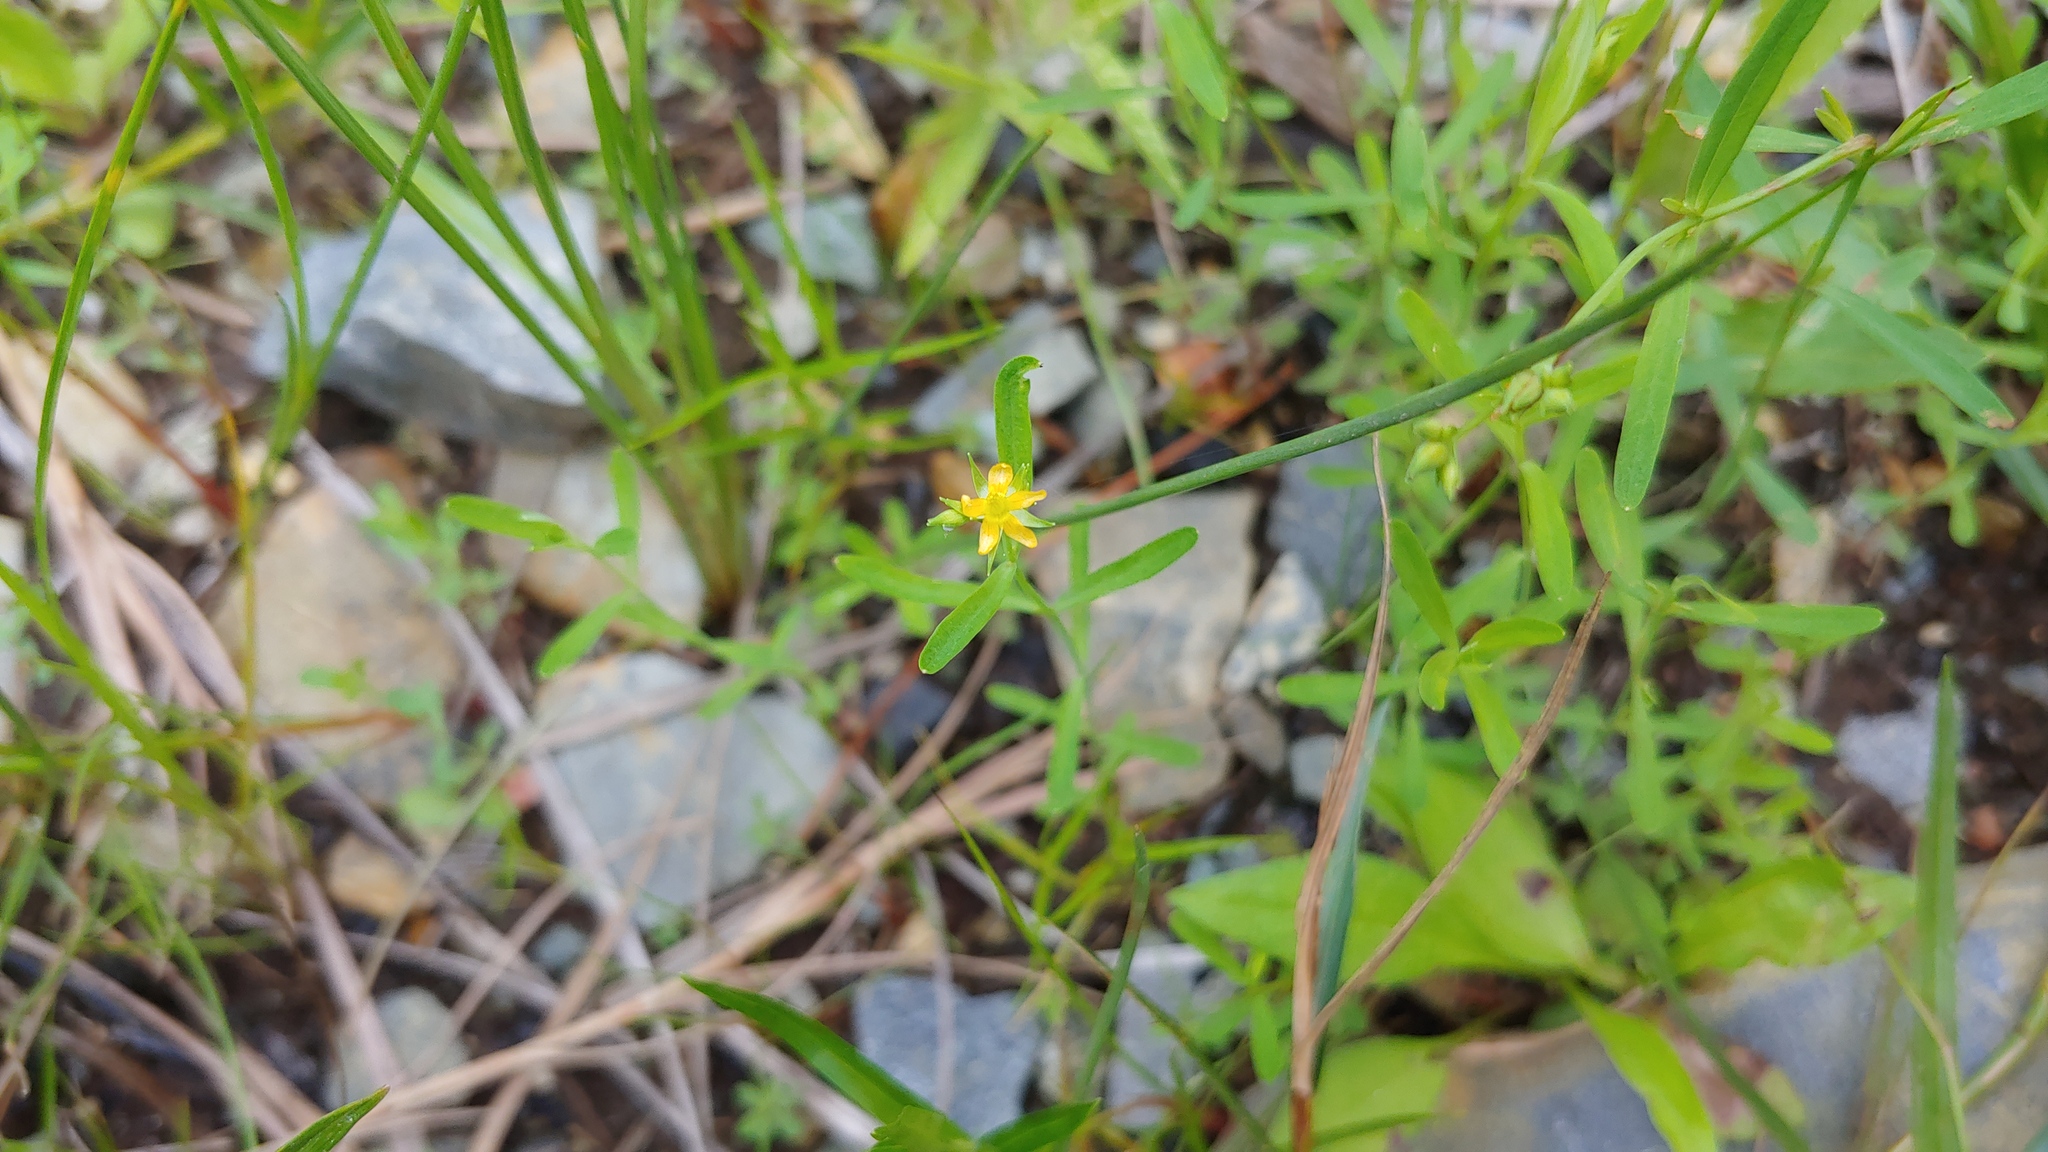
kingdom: Plantae
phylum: Tracheophyta
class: Magnoliopsida
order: Malpighiales
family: Hypericaceae
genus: Hypericum
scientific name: Hypericum canadense
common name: Irish st. john's-wort
